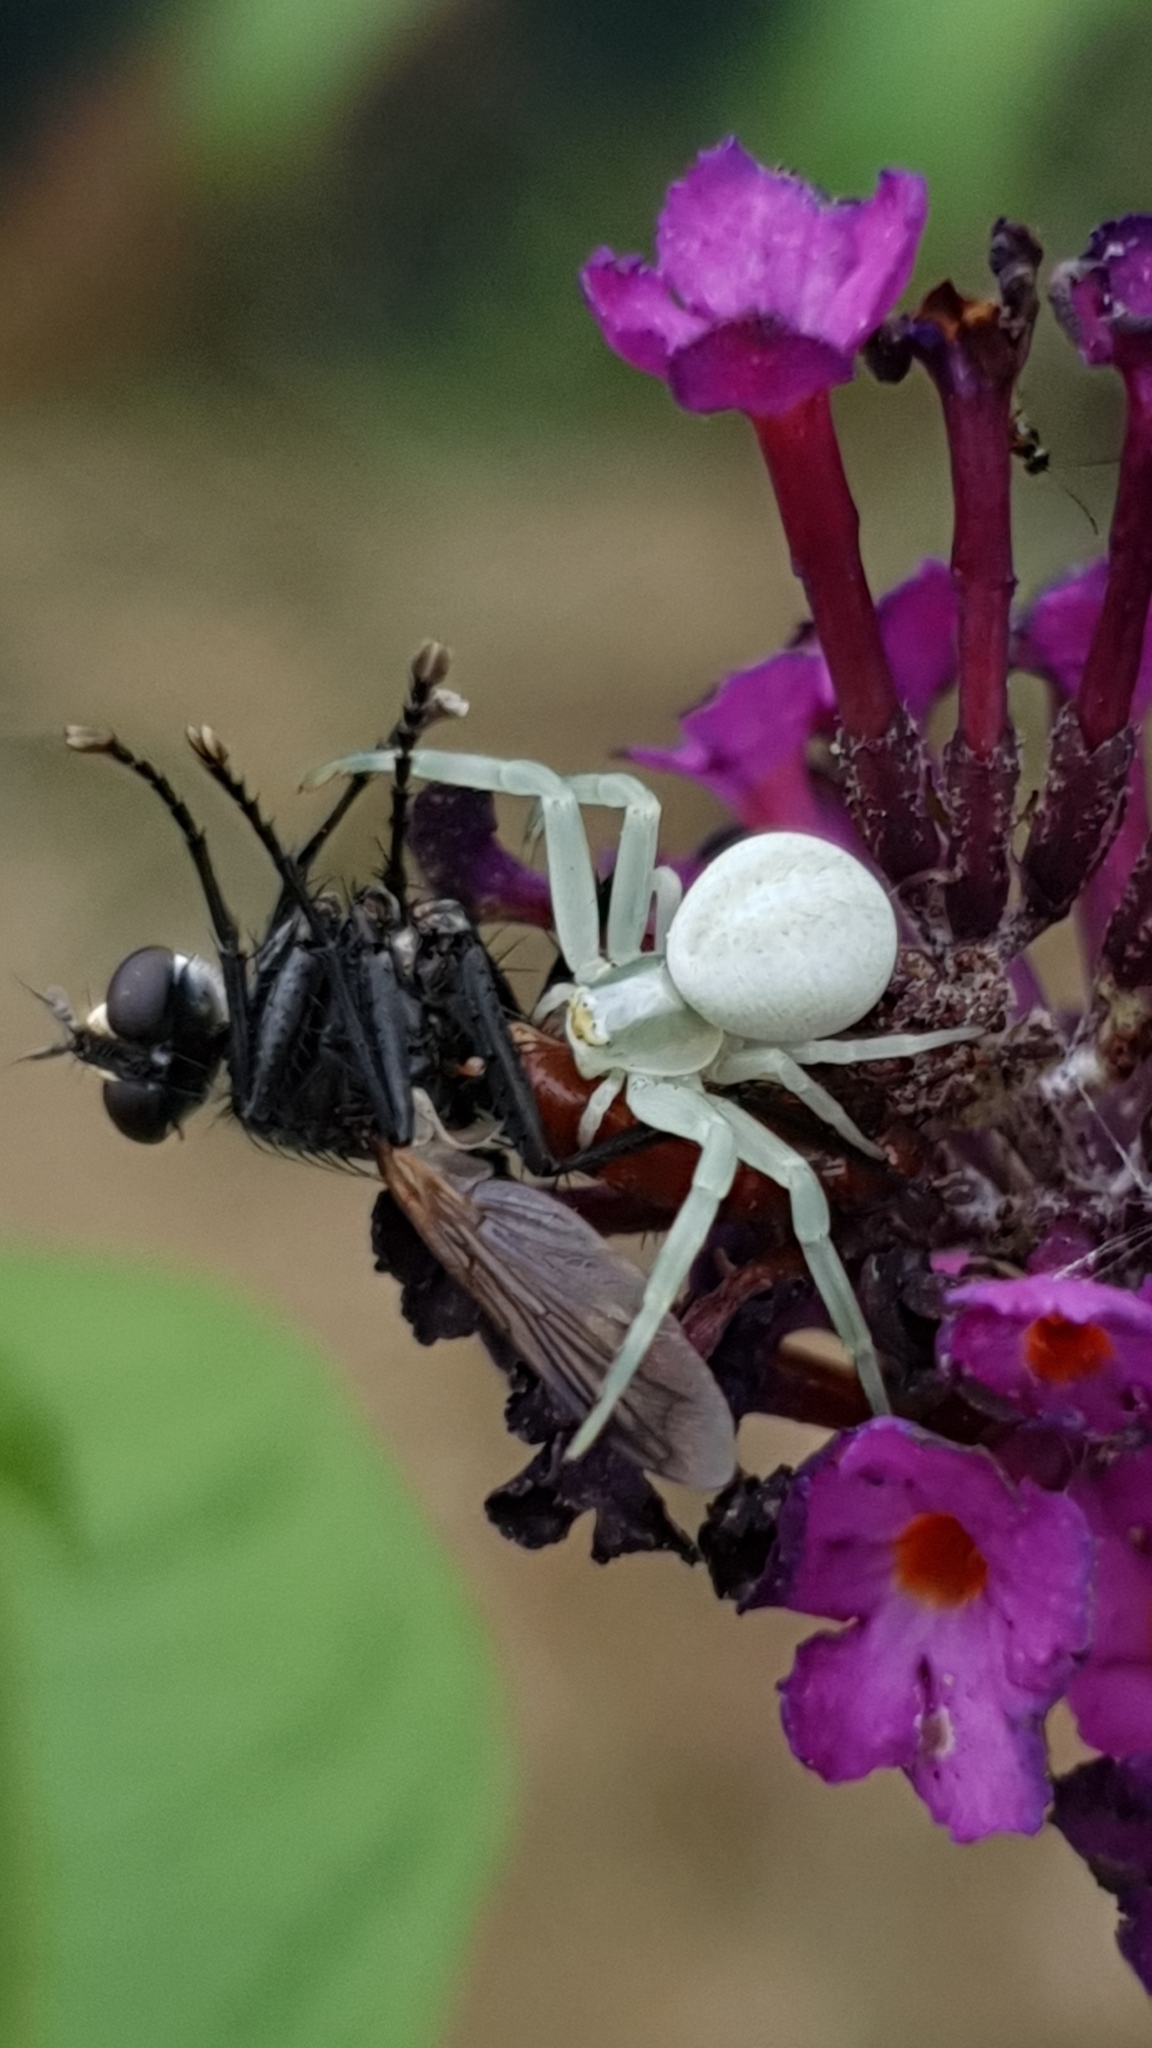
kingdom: Animalia
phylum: Arthropoda
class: Arachnida
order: Araneae
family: Thomisidae
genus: Misumena
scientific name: Misumena vatia
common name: Goldenrod crab spider
